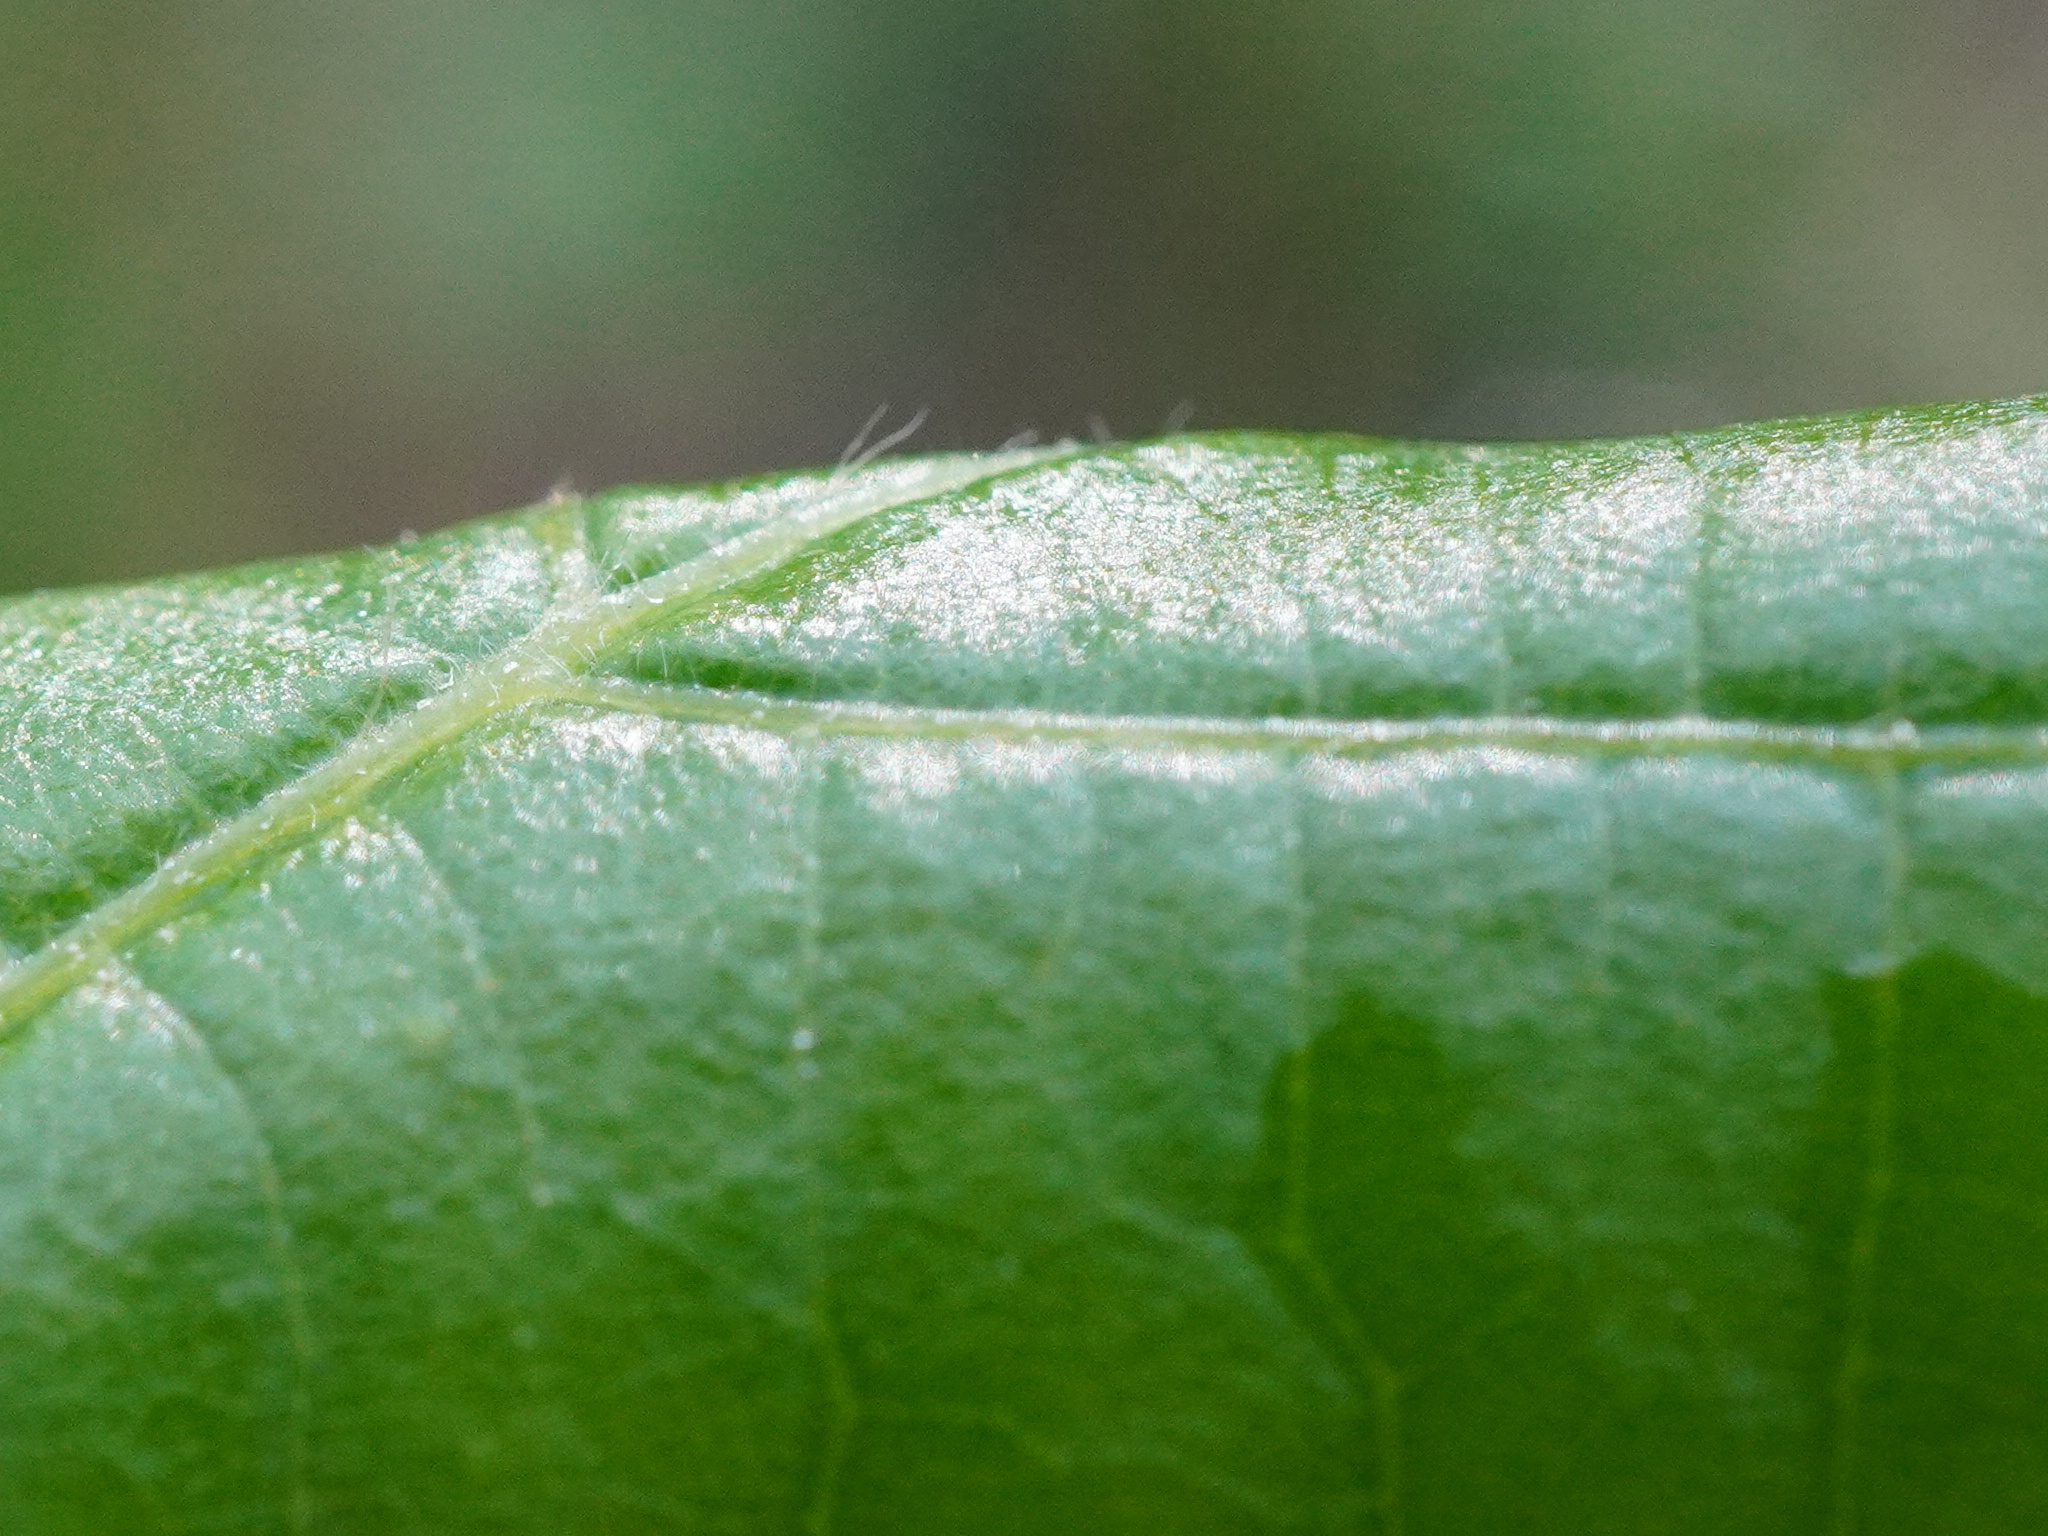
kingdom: Plantae
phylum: Tracheophyta
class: Magnoliopsida
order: Malvales
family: Malvaceae
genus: Tilia
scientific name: Tilia europaea
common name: European linden
